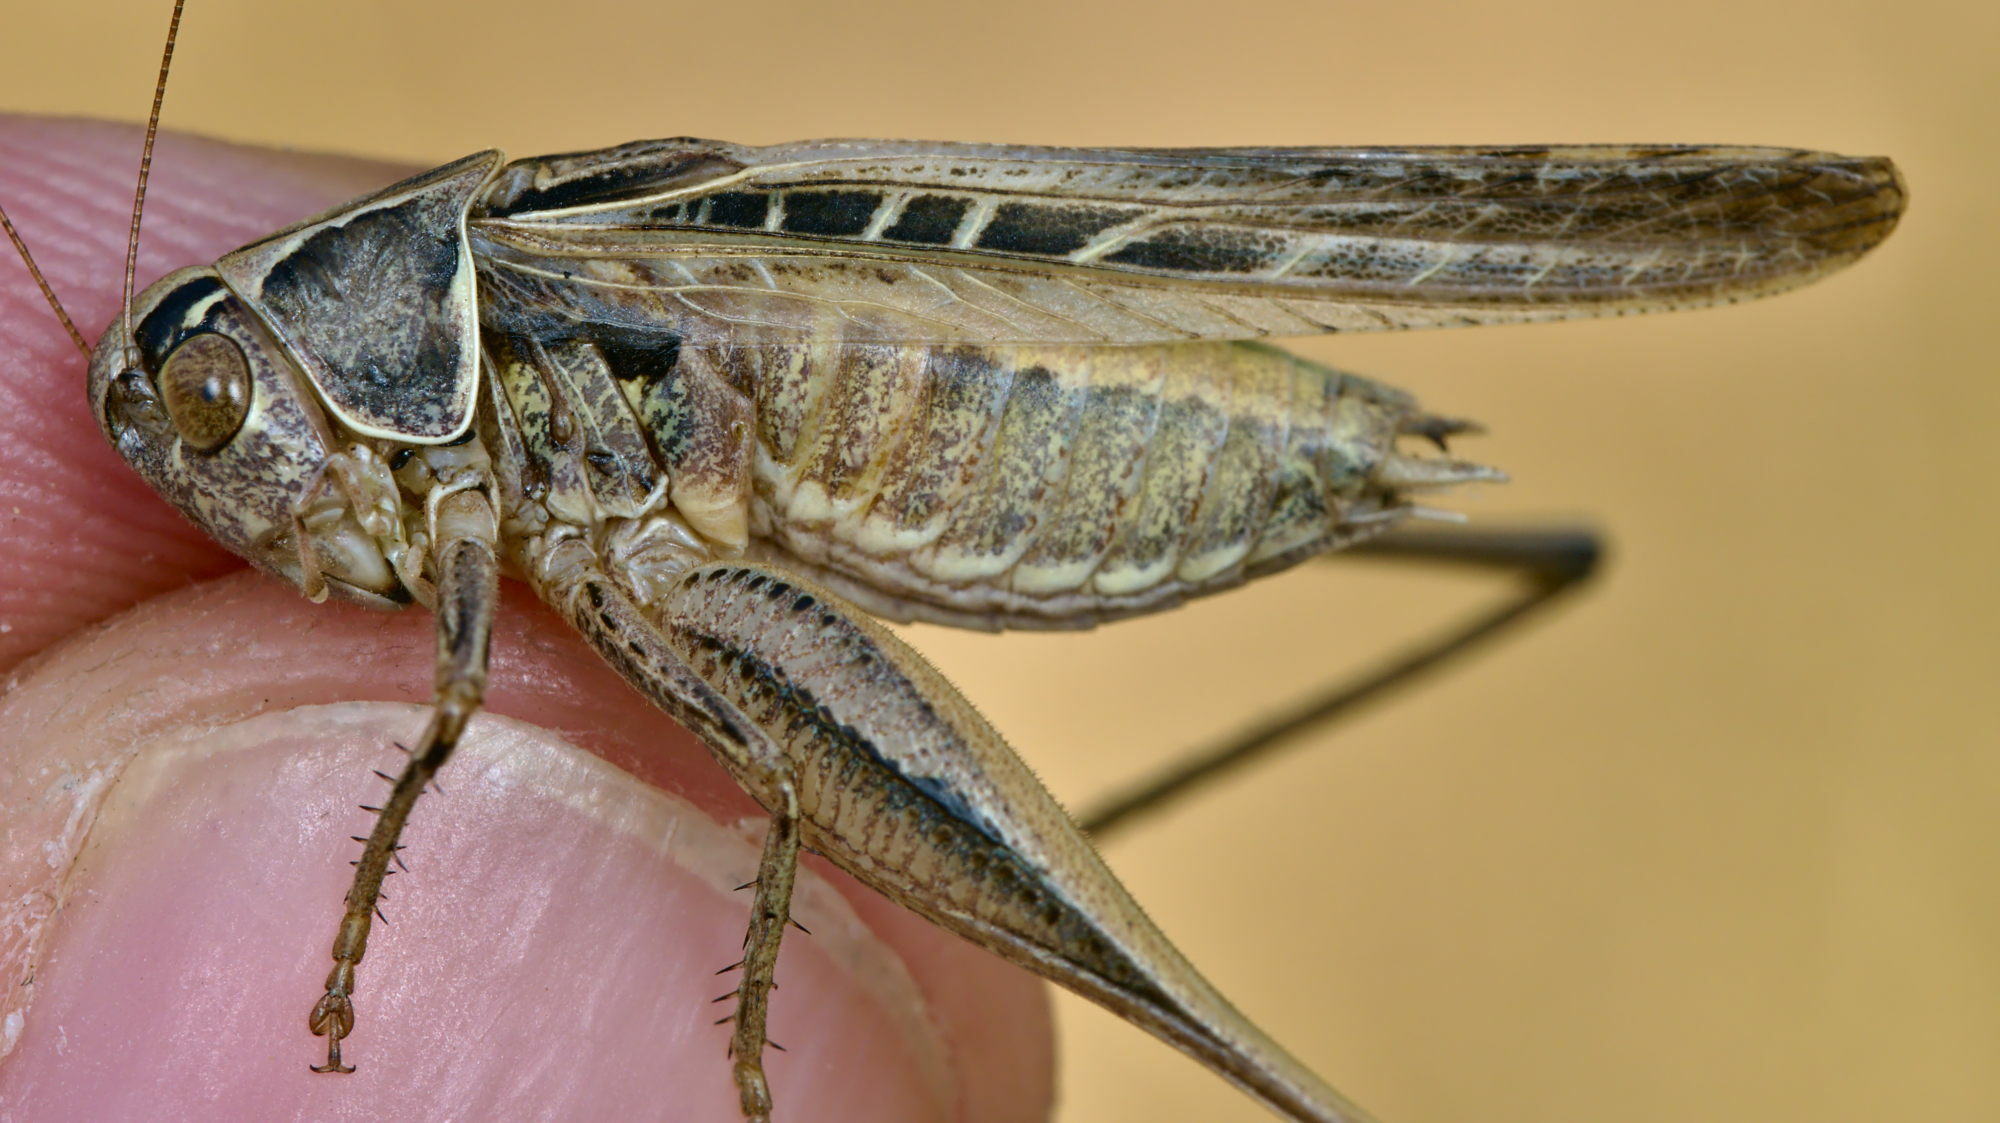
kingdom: Animalia
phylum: Arthropoda
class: Insecta
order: Orthoptera
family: Tettigoniidae
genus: Tessellana
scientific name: Tessellana tessellata
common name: Grasshopper
